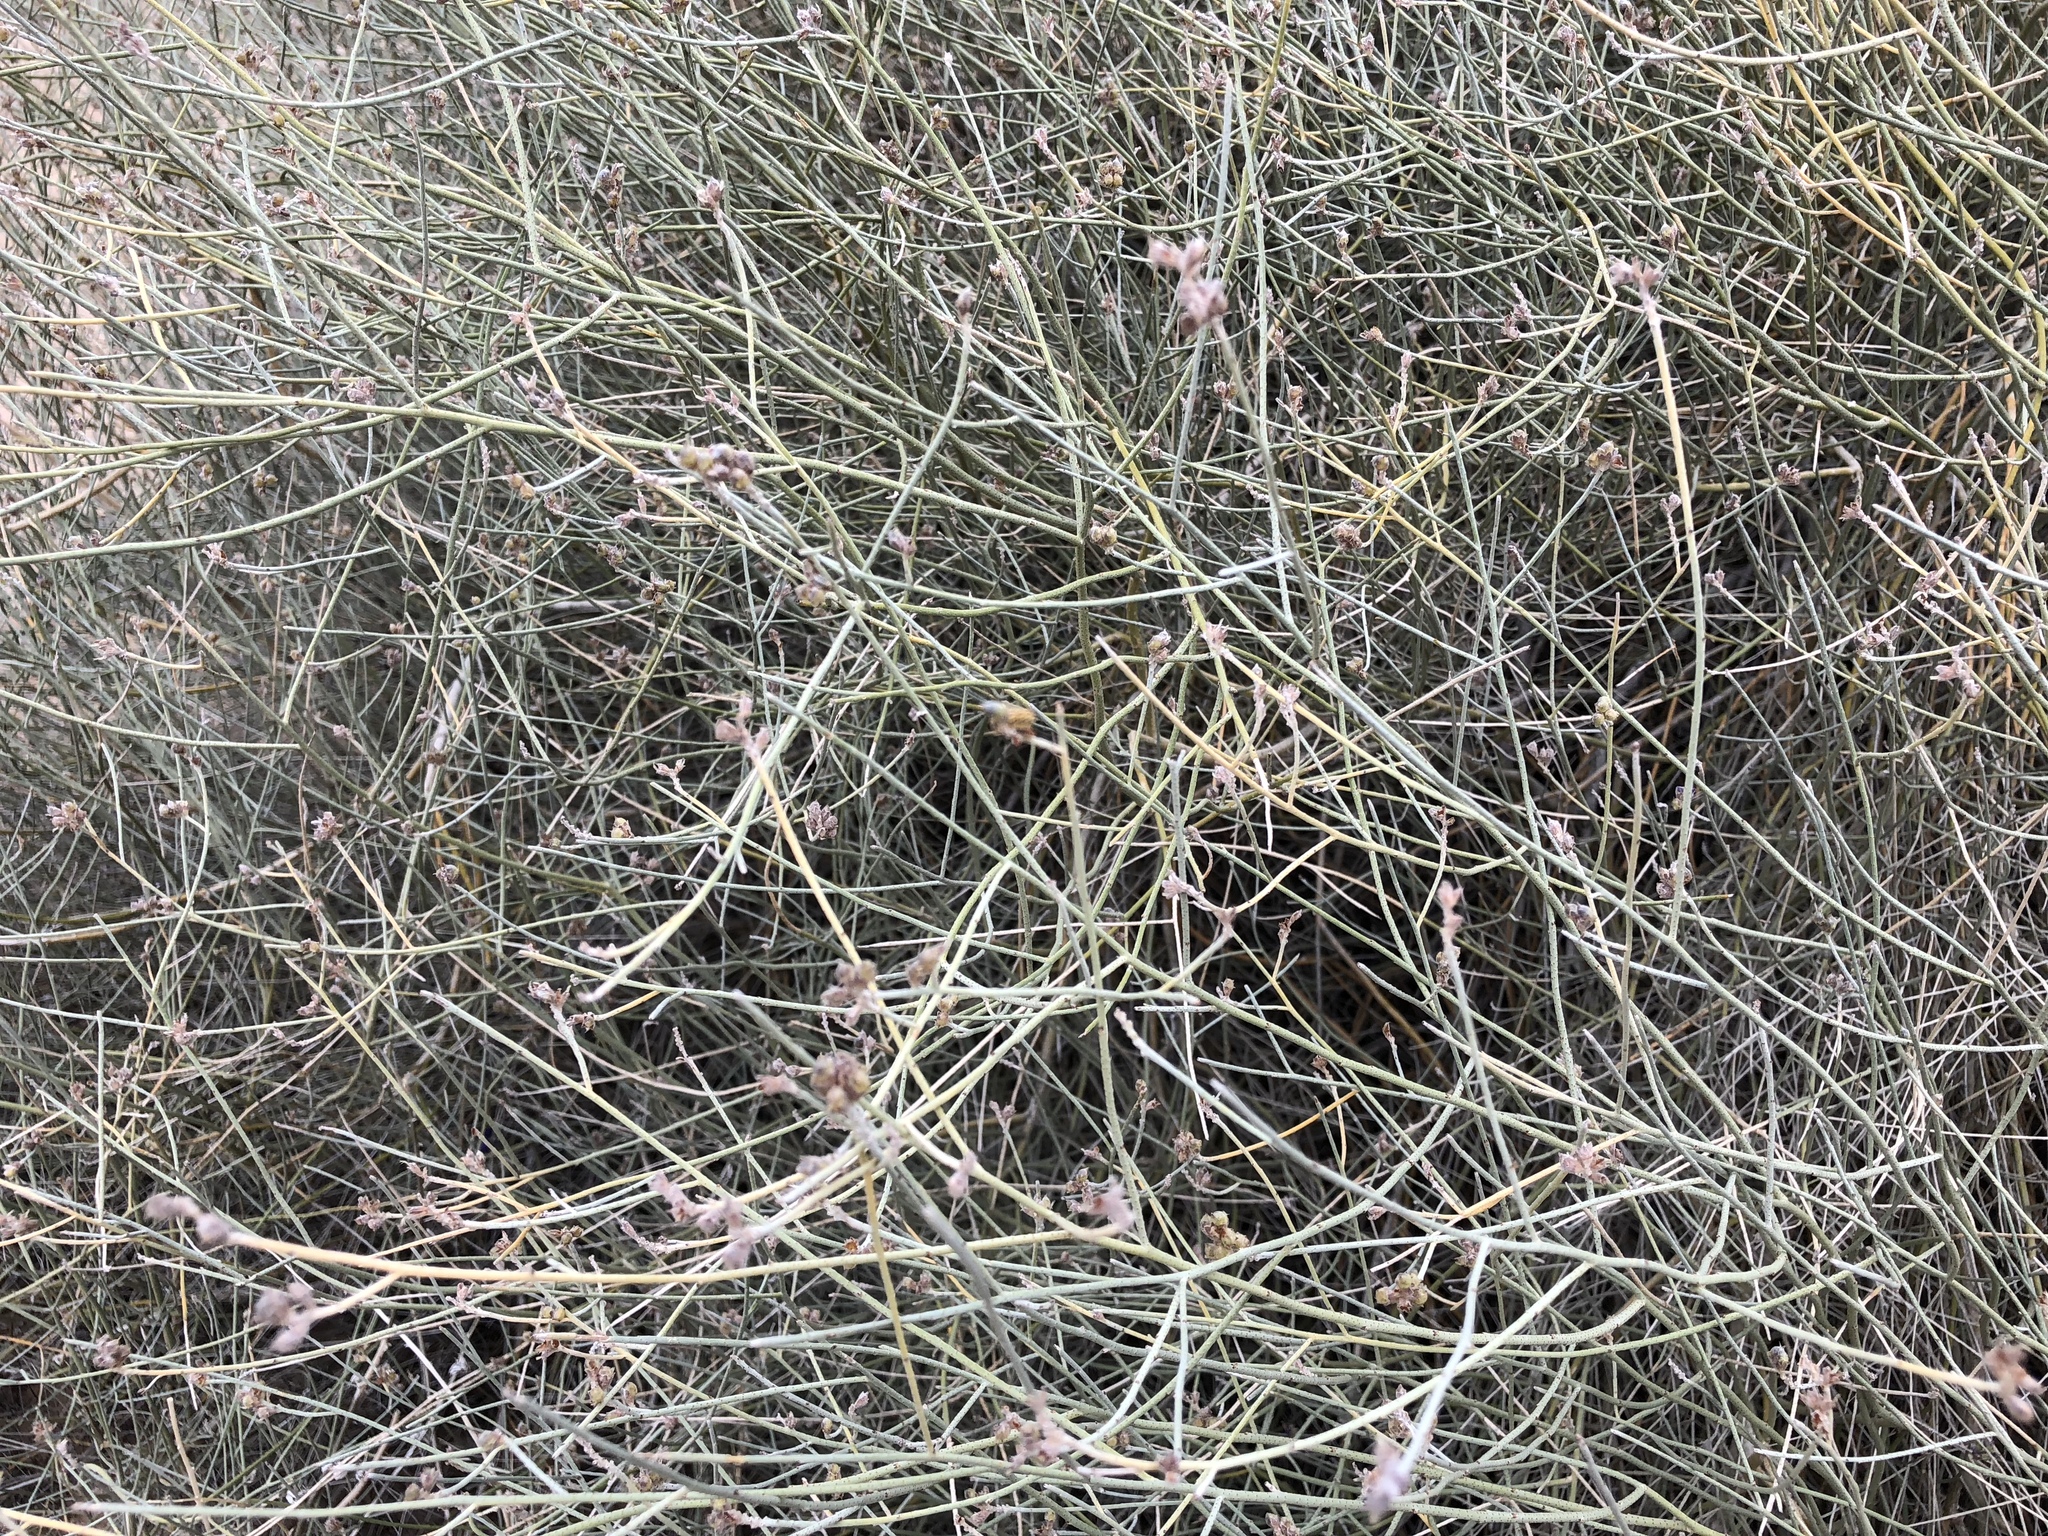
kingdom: Plantae
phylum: Tracheophyta
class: Magnoliopsida
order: Fabales
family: Fabaceae
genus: Psorothamnus
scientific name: Psorothamnus scoparius
